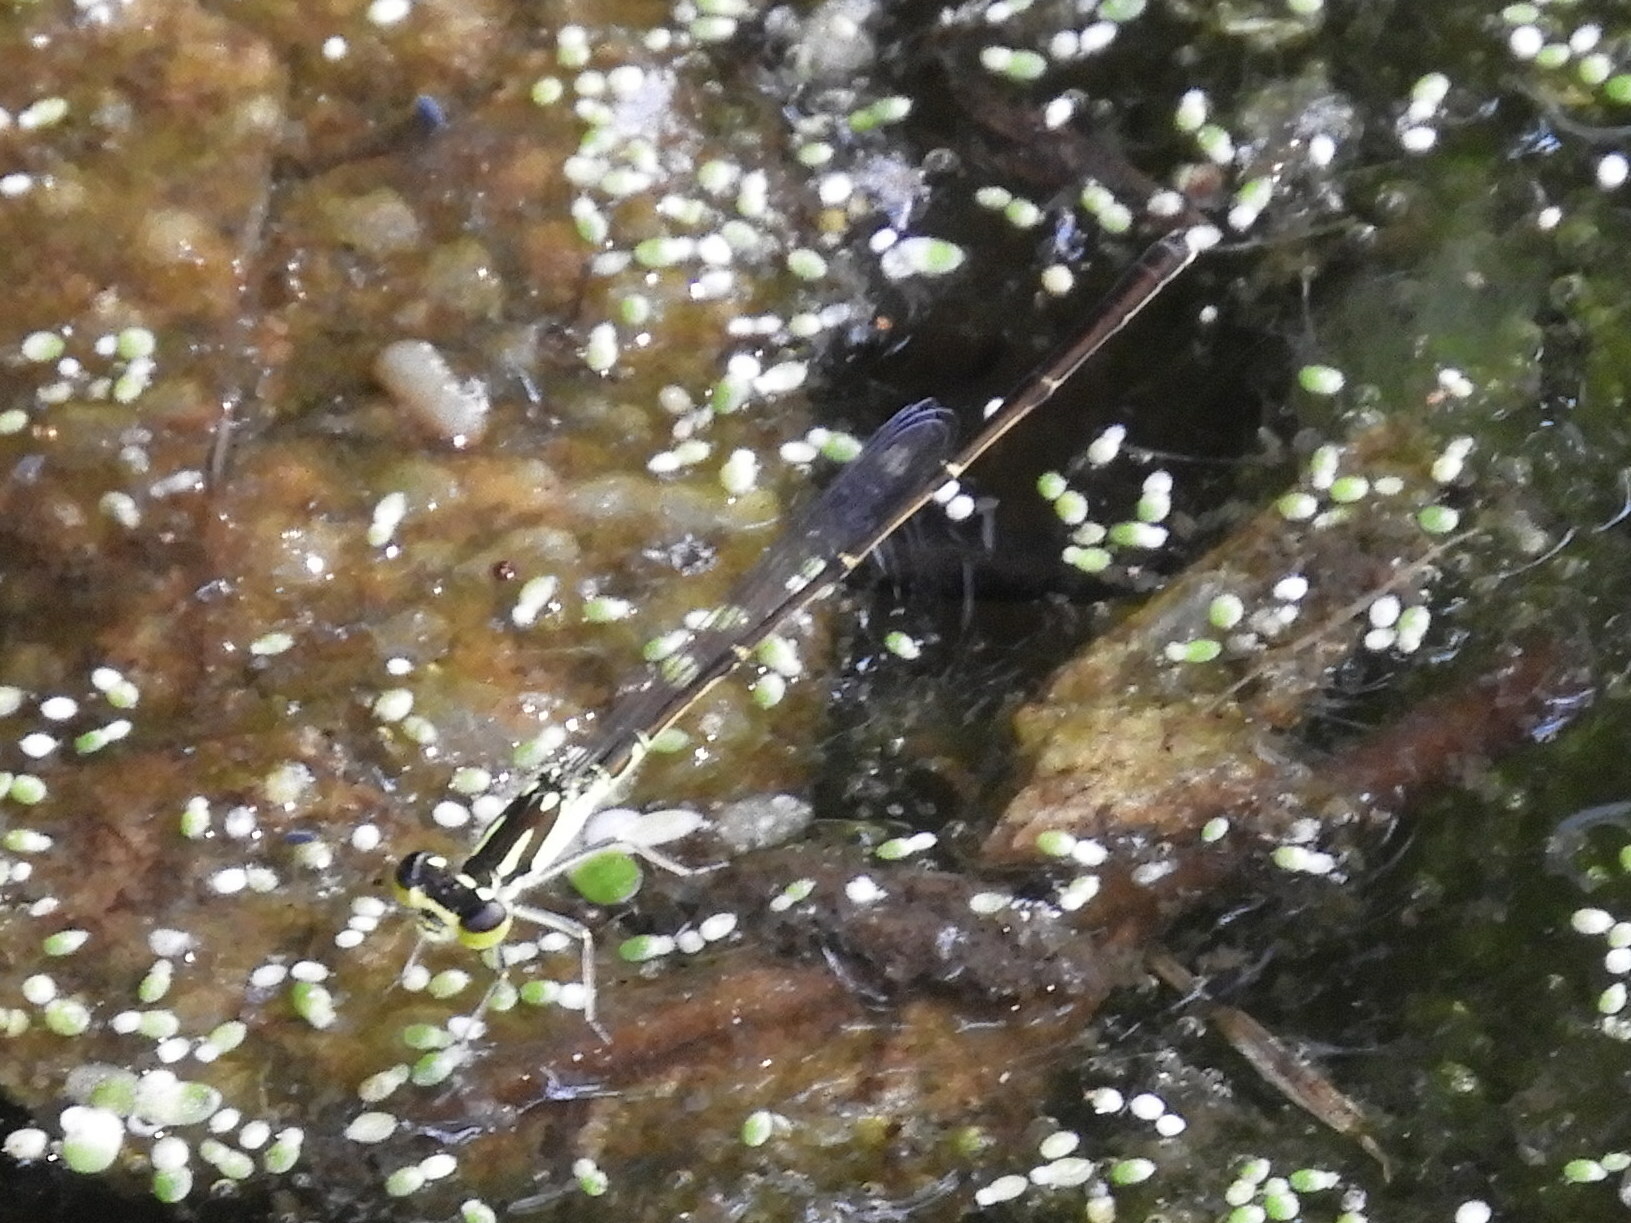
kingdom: Animalia
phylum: Arthropoda
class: Insecta
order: Odonata
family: Coenagrionidae
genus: Ischnura
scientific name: Ischnura posita
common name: Fragile forktail
